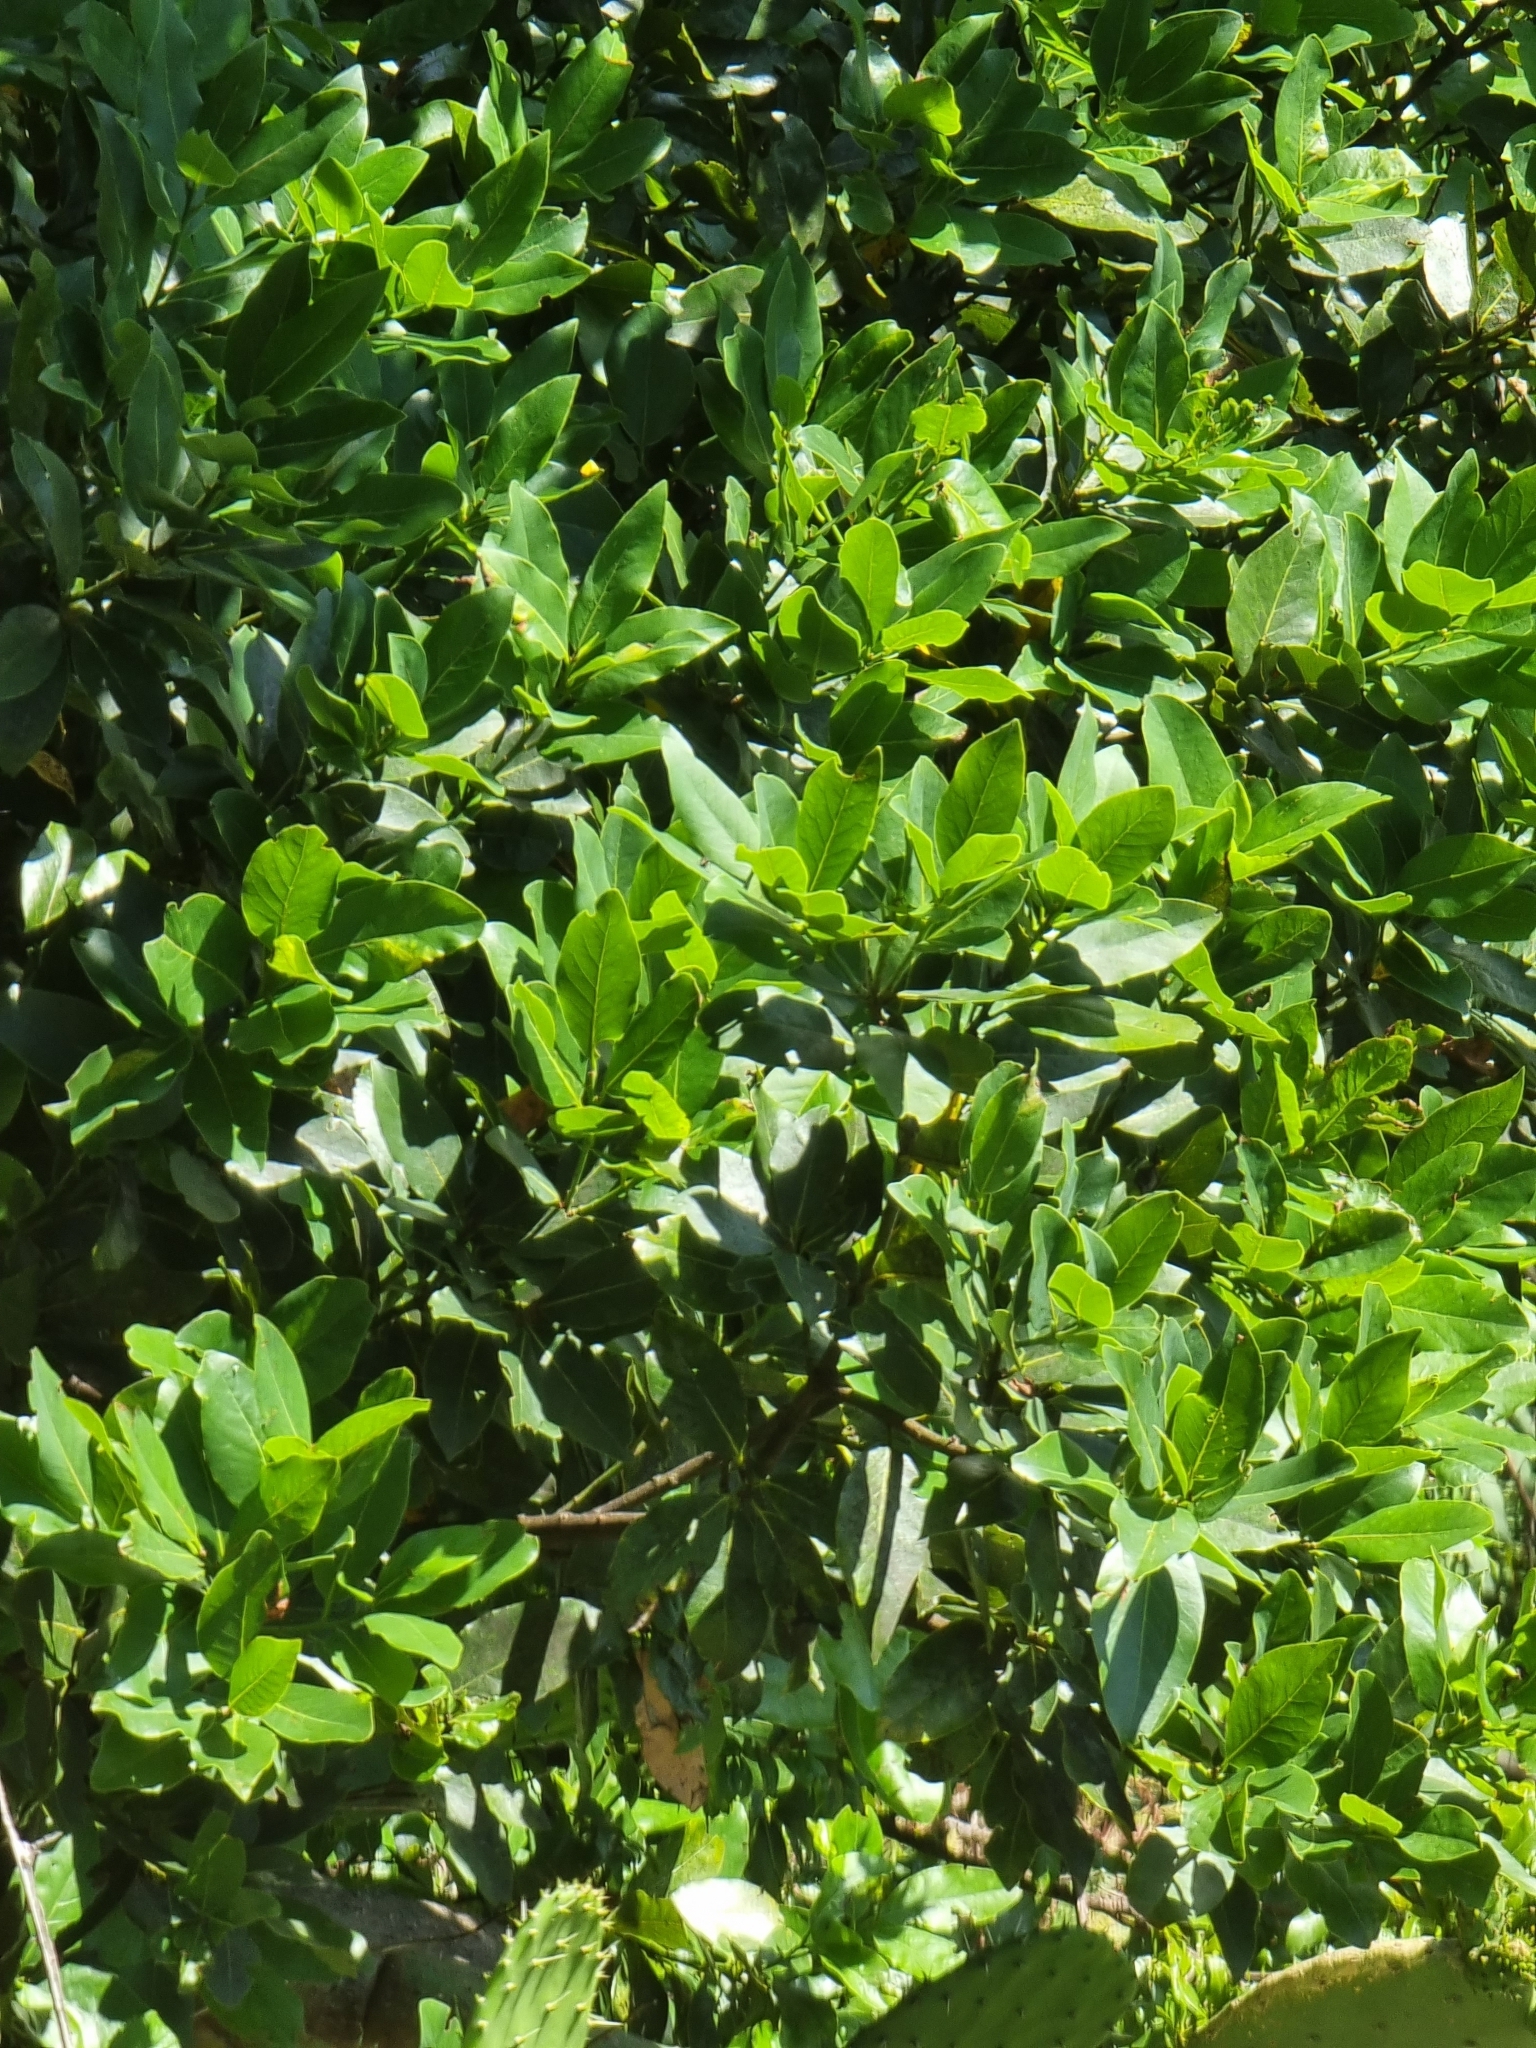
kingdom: Plantae
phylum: Tracheophyta
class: Magnoliopsida
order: Laurales
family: Lauraceae
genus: Laurus
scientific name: Laurus novocanariensis
